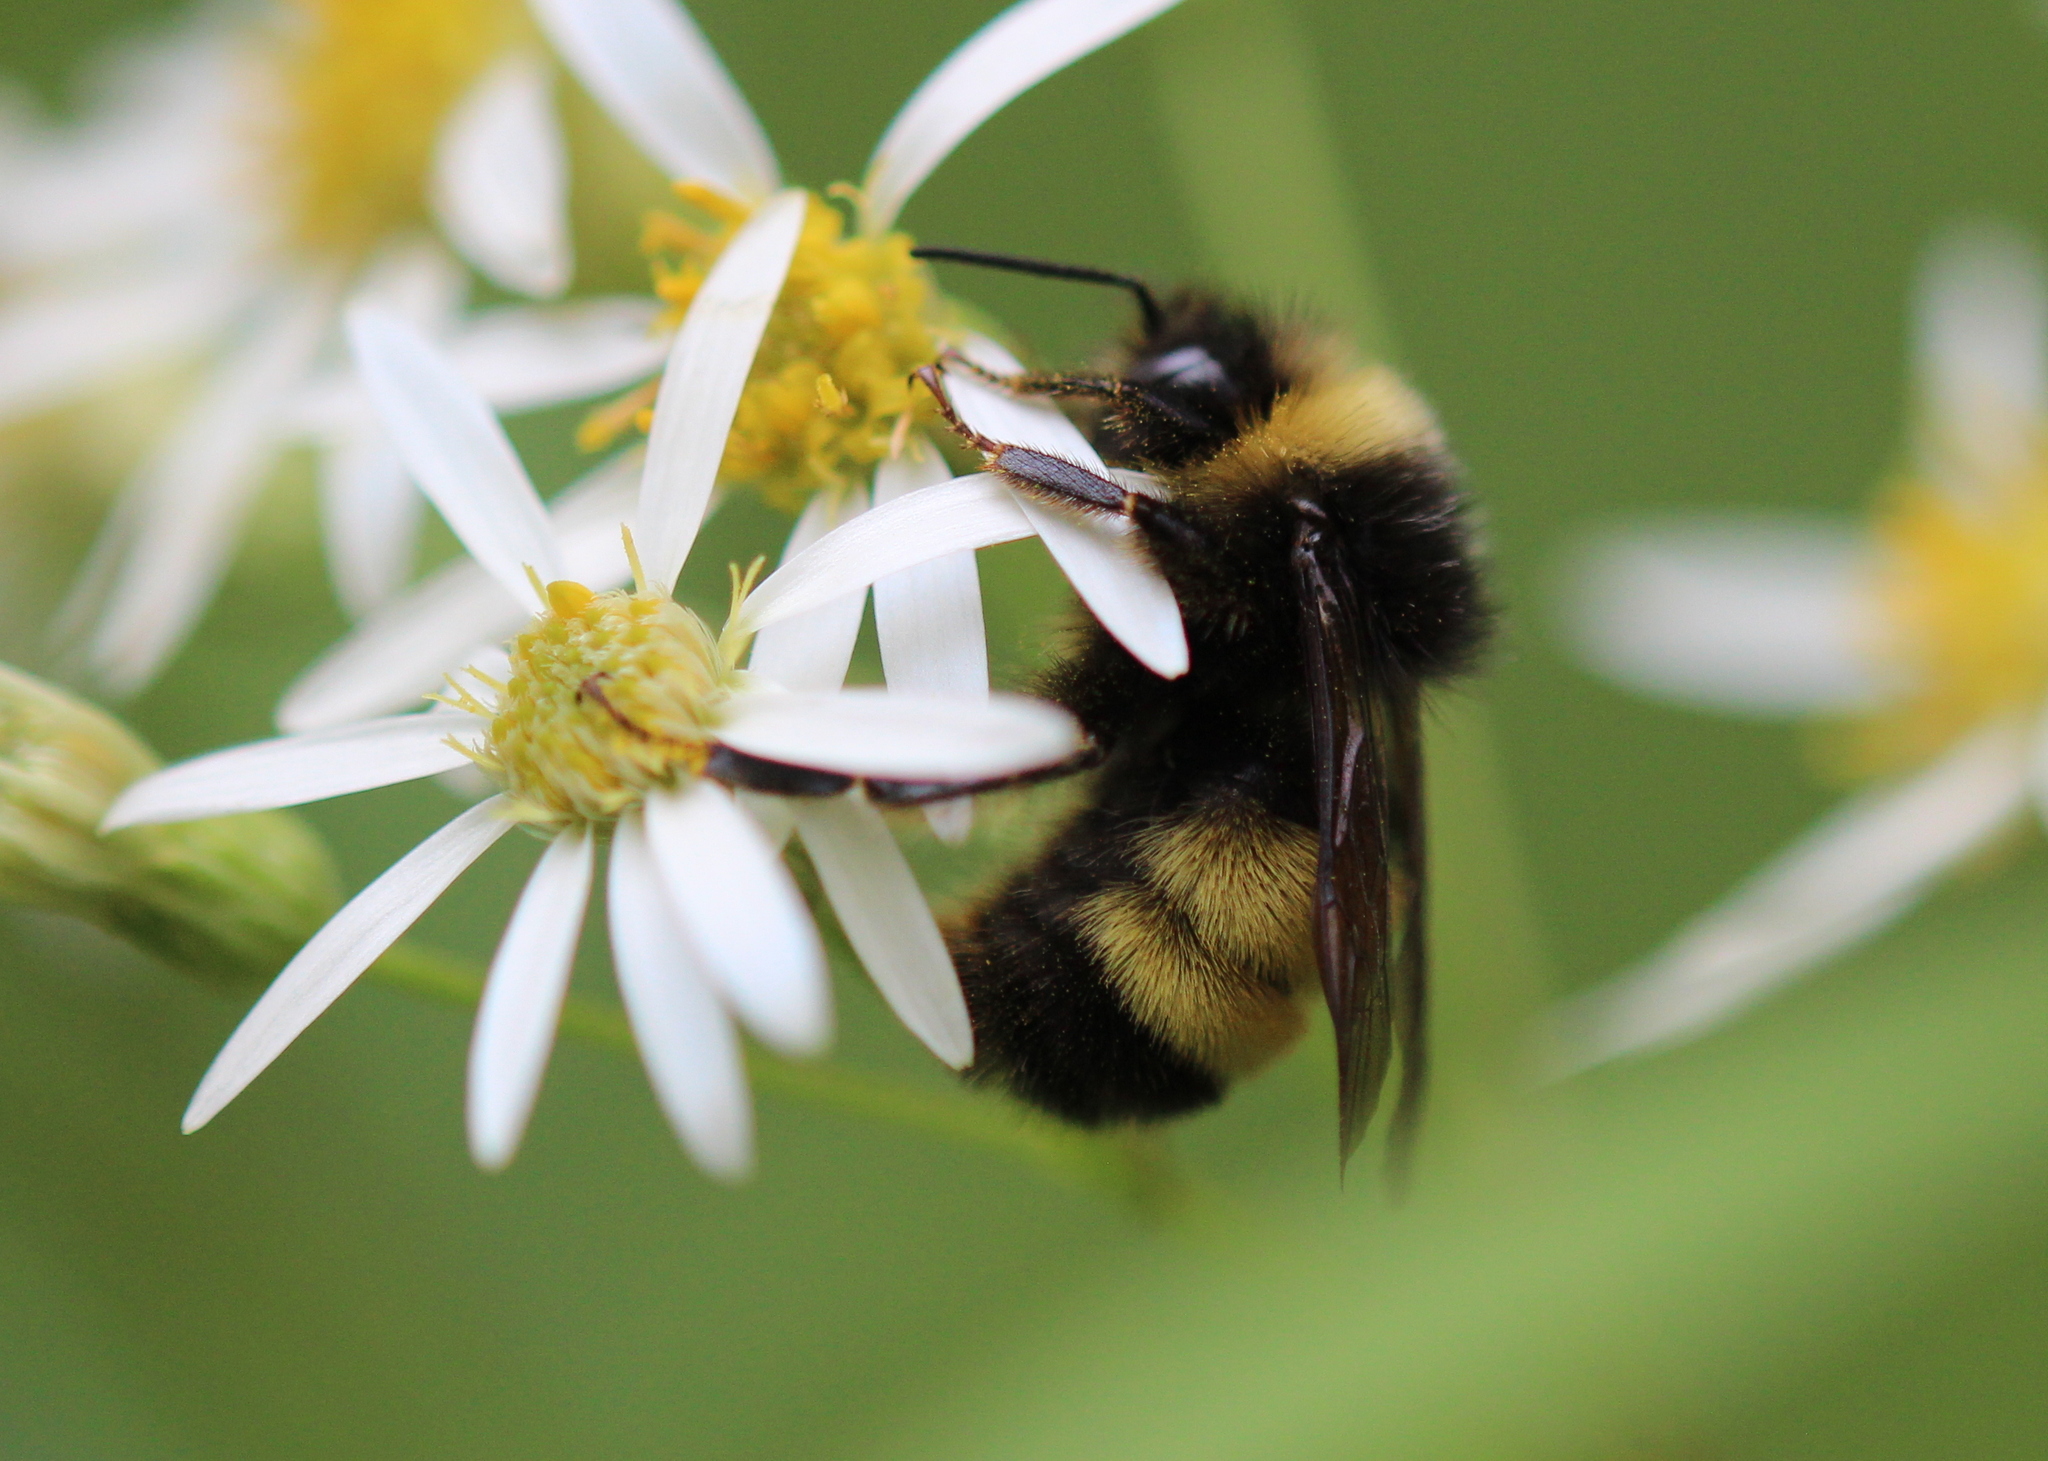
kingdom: Animalia
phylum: Arthropoda
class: Insecta
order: Hymenoptera
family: Apidae
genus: Bombus
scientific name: Bombus terricola
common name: Yellow-banded bumble bee
